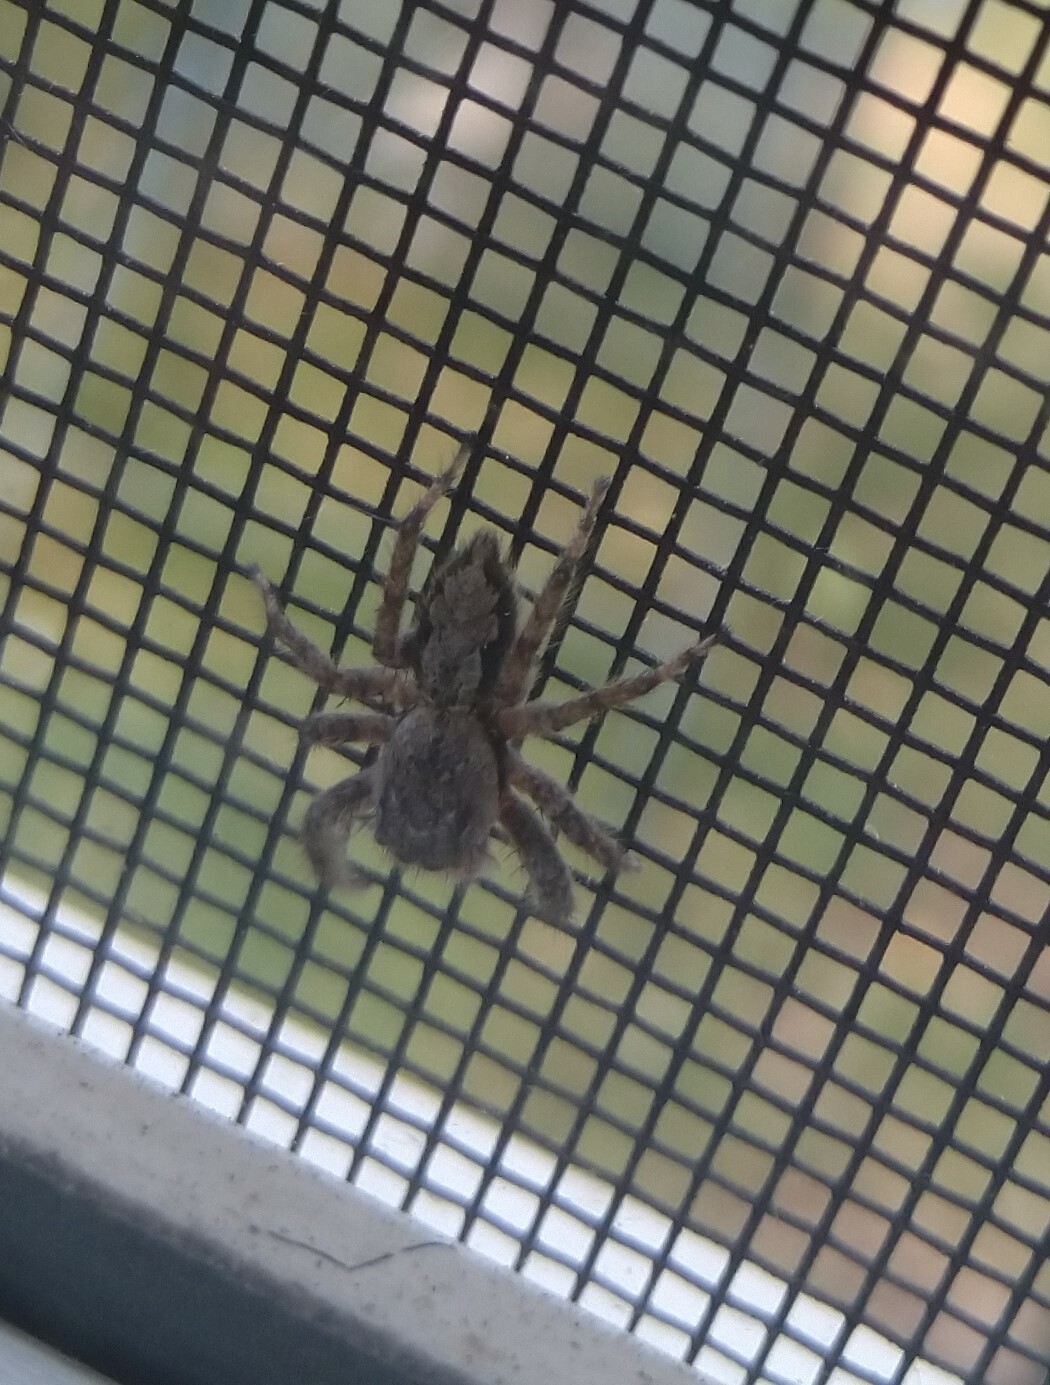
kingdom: Animalia
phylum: Arthropoda
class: Arachnida
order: Araneae
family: Salticidae
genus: Platycryptus
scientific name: Platycryptus undatus
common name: Tan jumping spider
